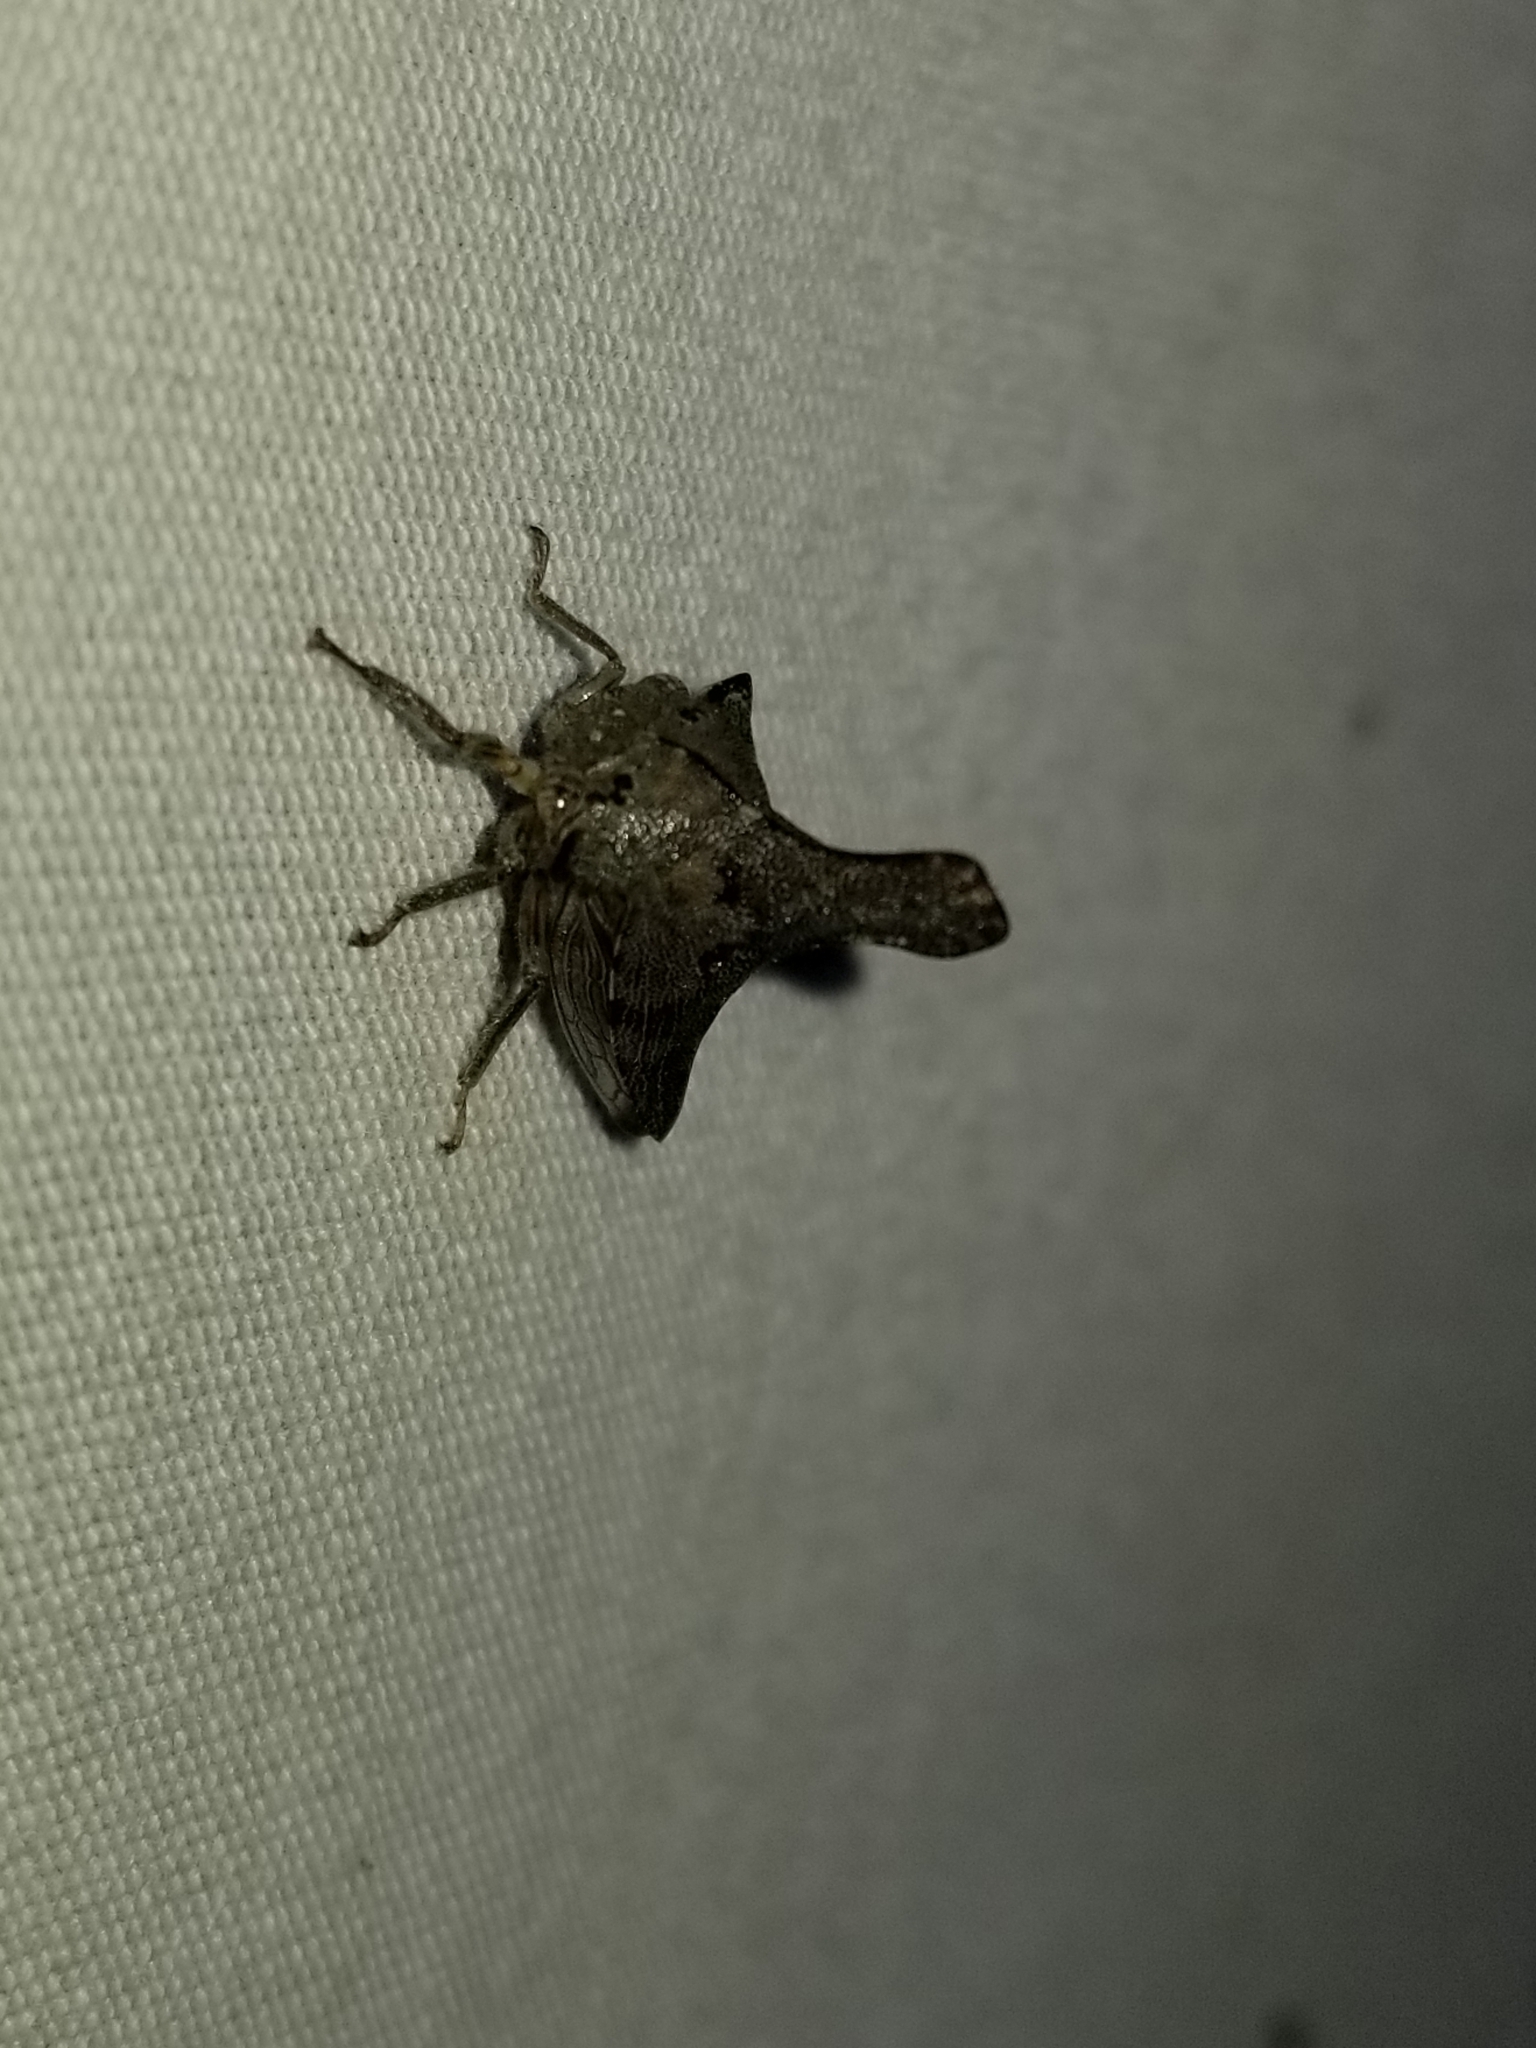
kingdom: Animalia
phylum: Arthropoda
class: Insecta
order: Hemiptera
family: Membracidae
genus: Glossonotus
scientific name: Glossonotus acuminata
